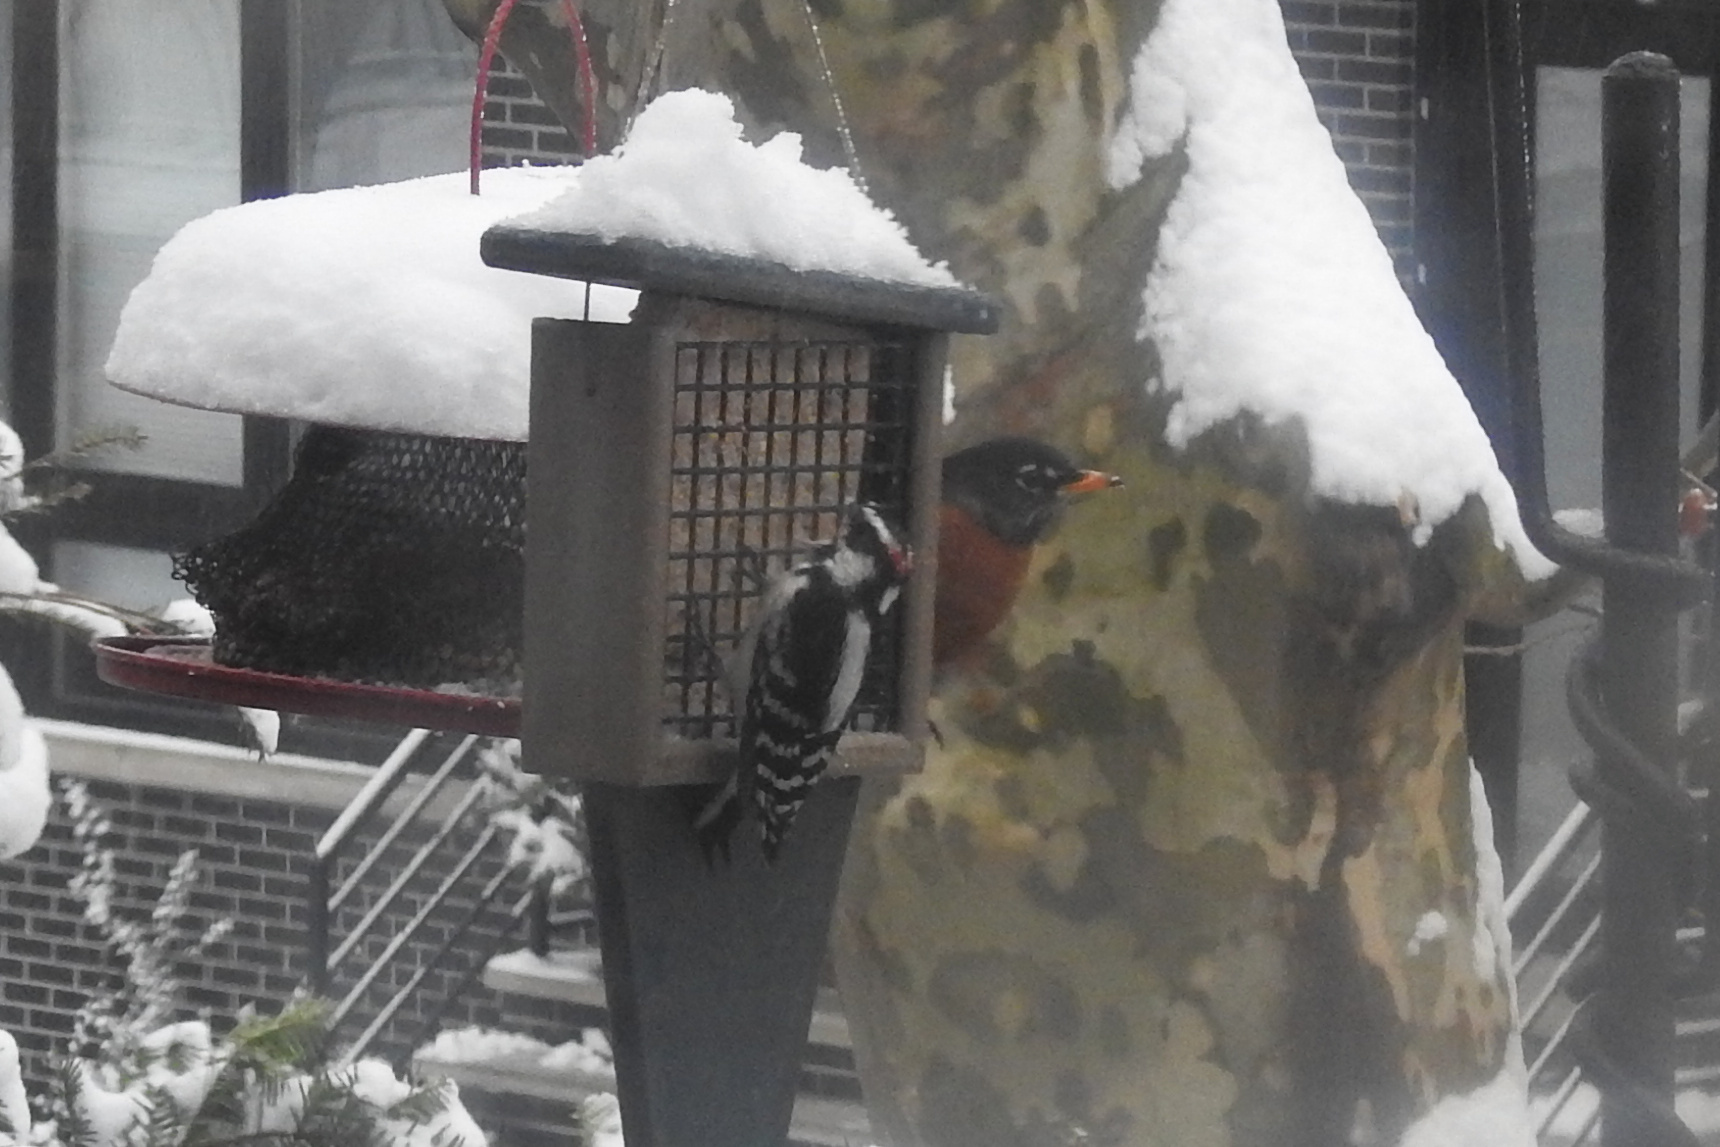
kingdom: Animalia
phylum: Chordata
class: Aves
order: Piciformes
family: Picidae
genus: Dryobates
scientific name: Dryobates pubescens
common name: Downy woodpecker
